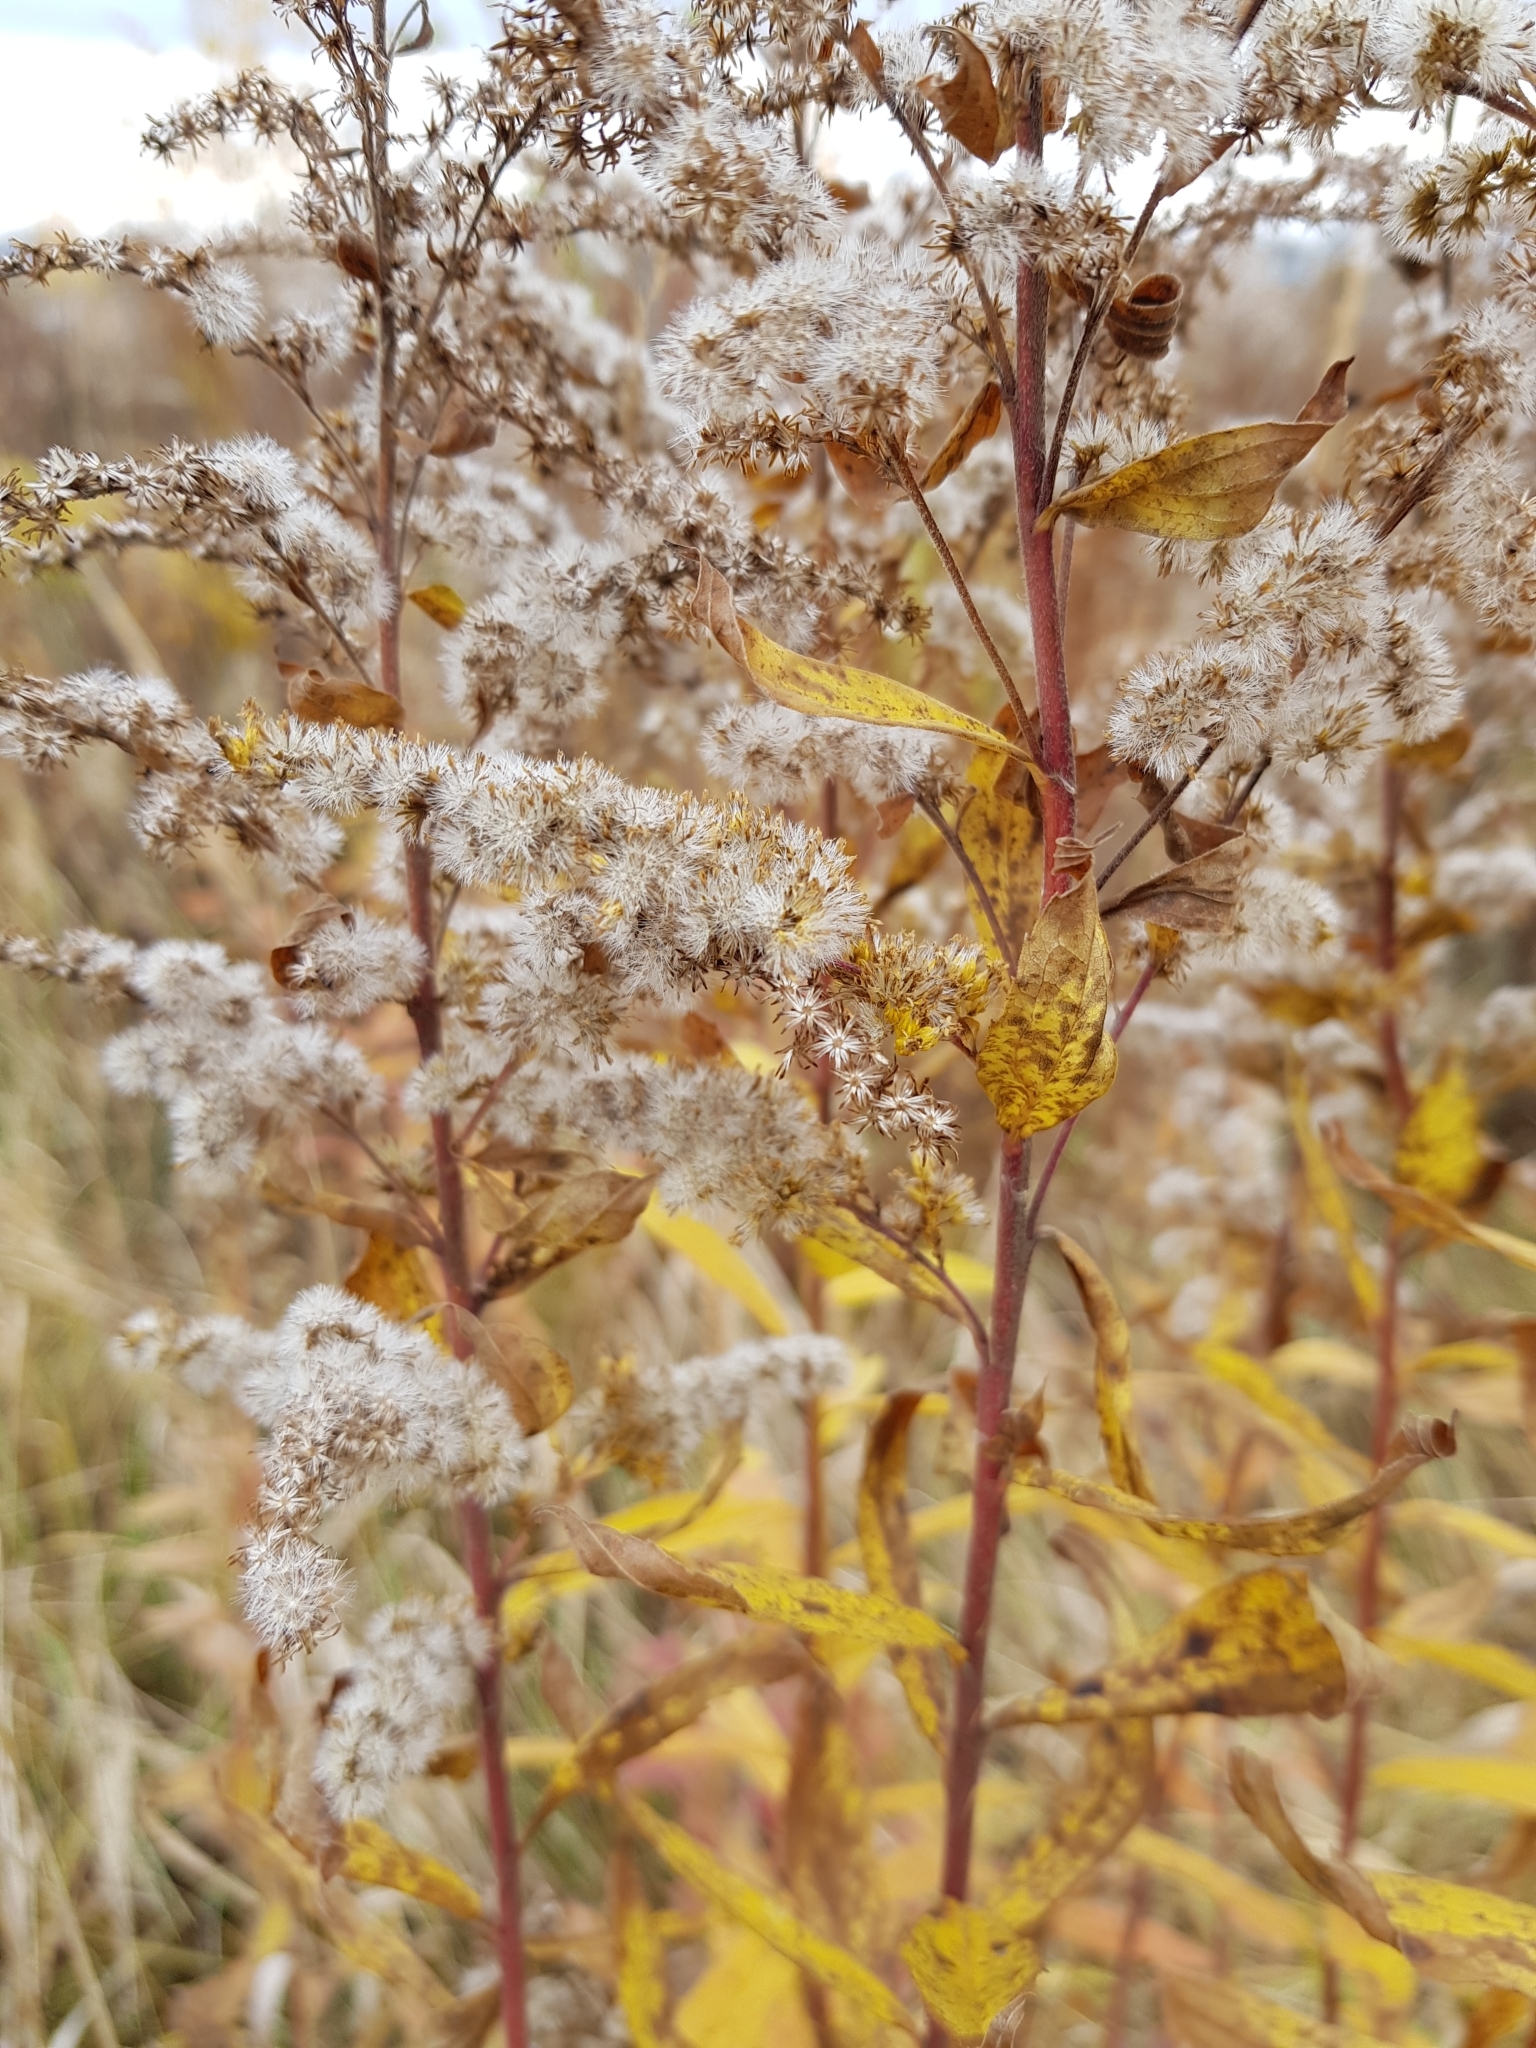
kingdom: Plantae
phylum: Tracheophyta
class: Magnoliopsida
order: Asterales
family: Asteraceae
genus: Solidago
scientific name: Solidago canadensis
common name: Canada goldenrod
